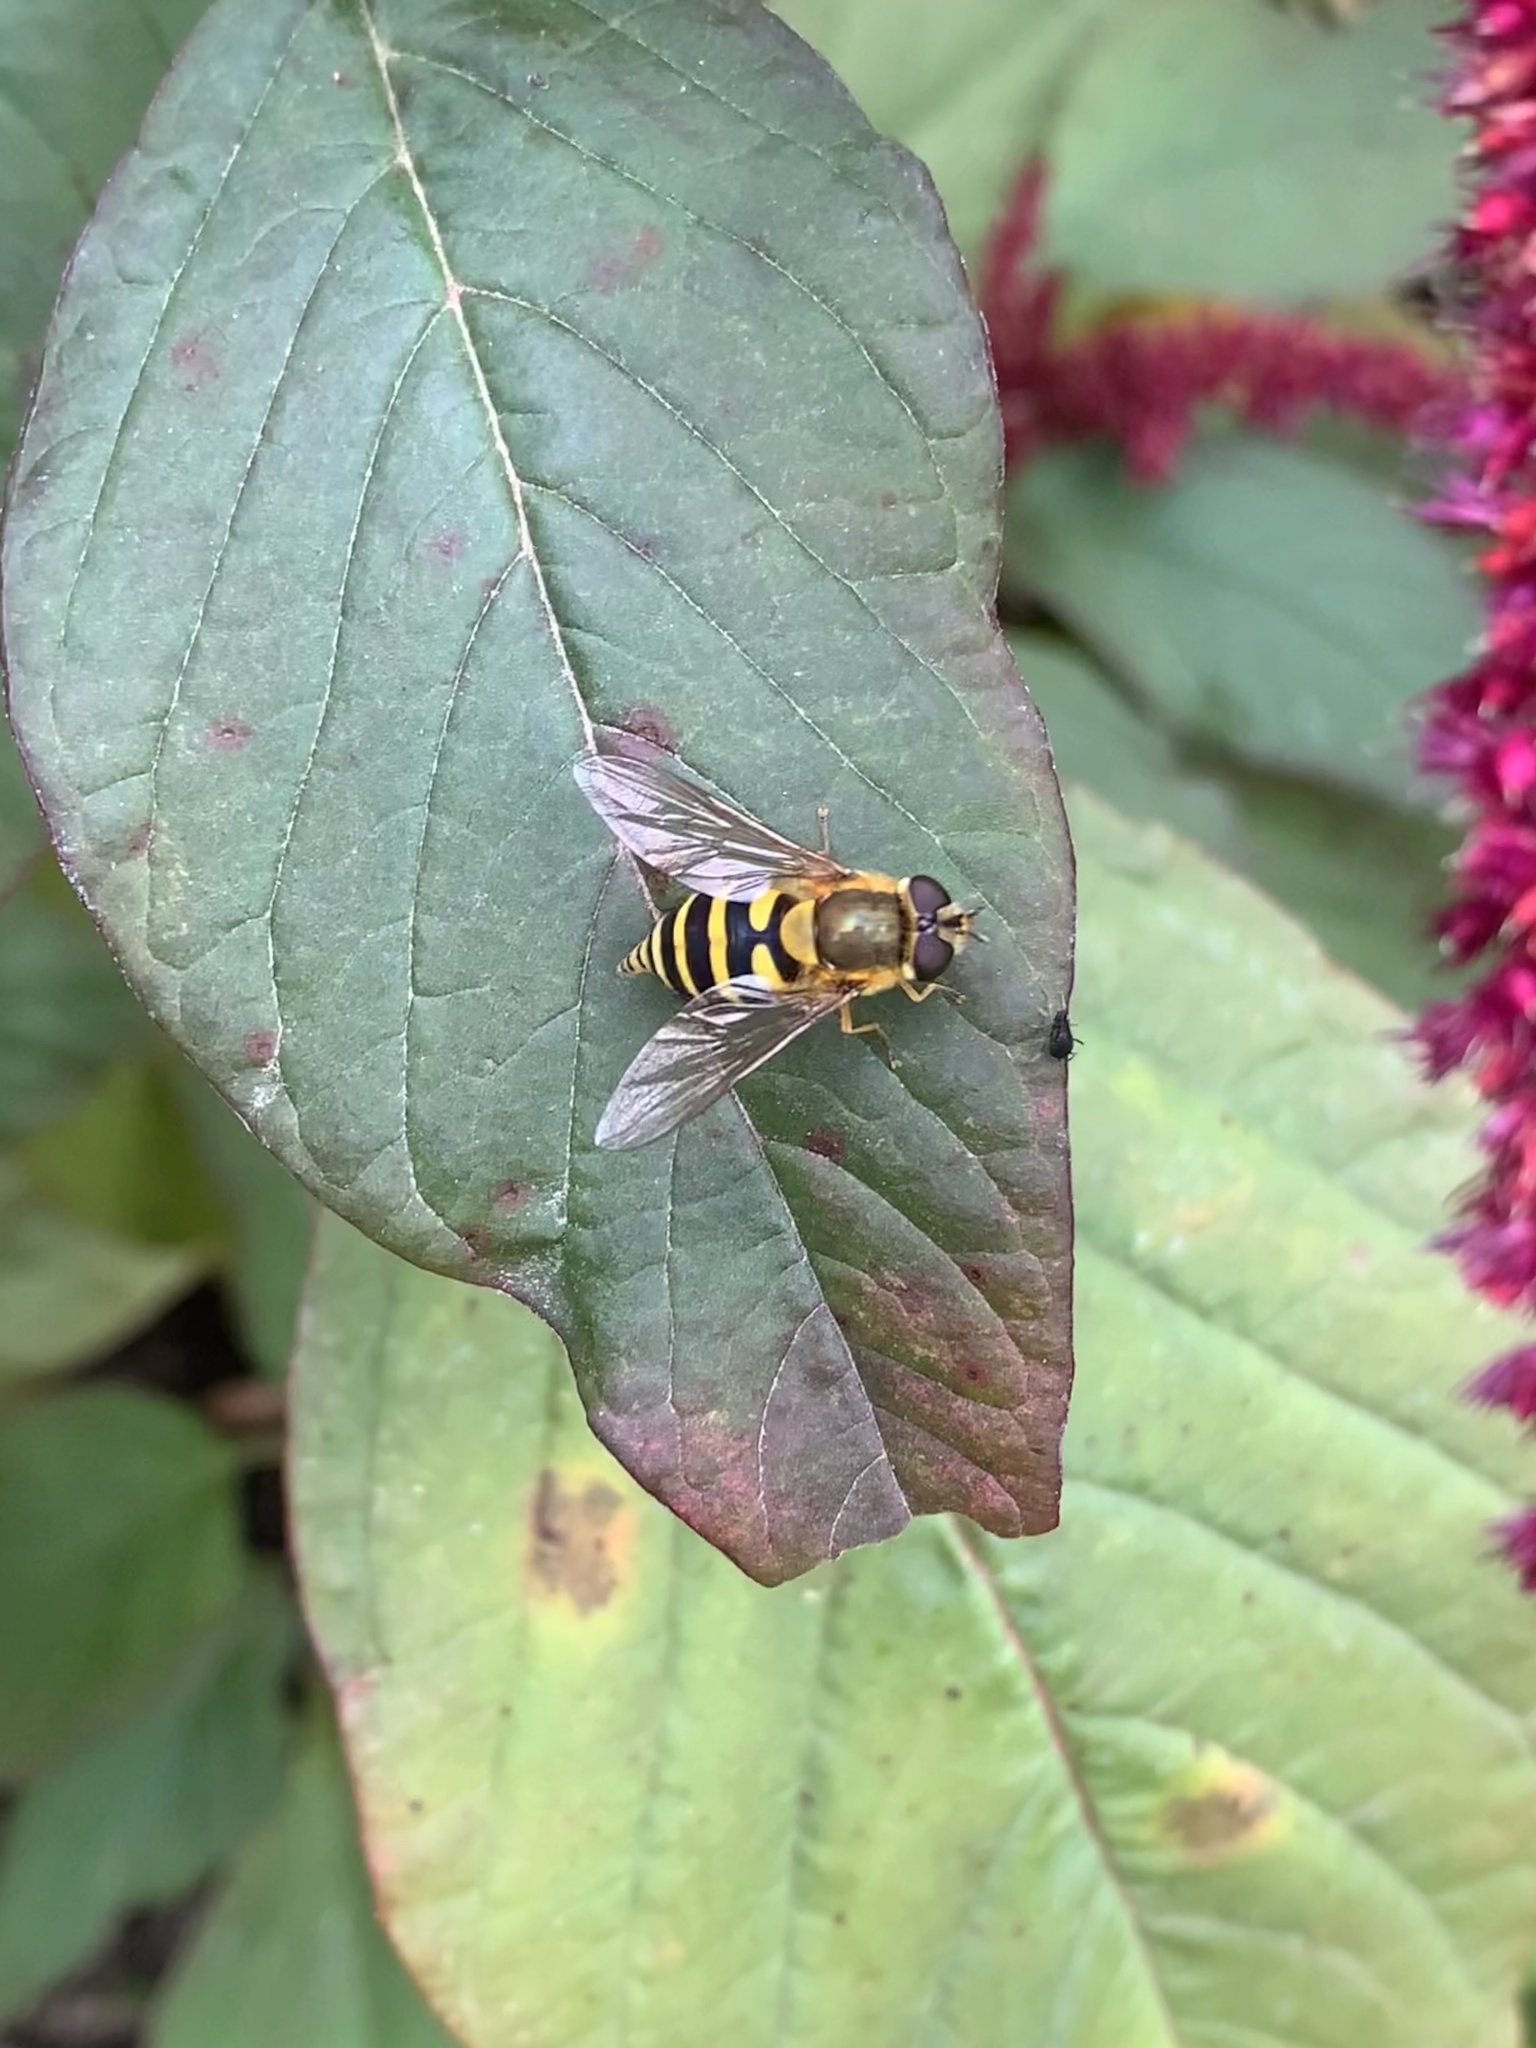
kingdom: Animalia
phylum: Arthropoda
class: Insecta
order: Diptera
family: Syrphidae
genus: Syrphus
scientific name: Syrphus
